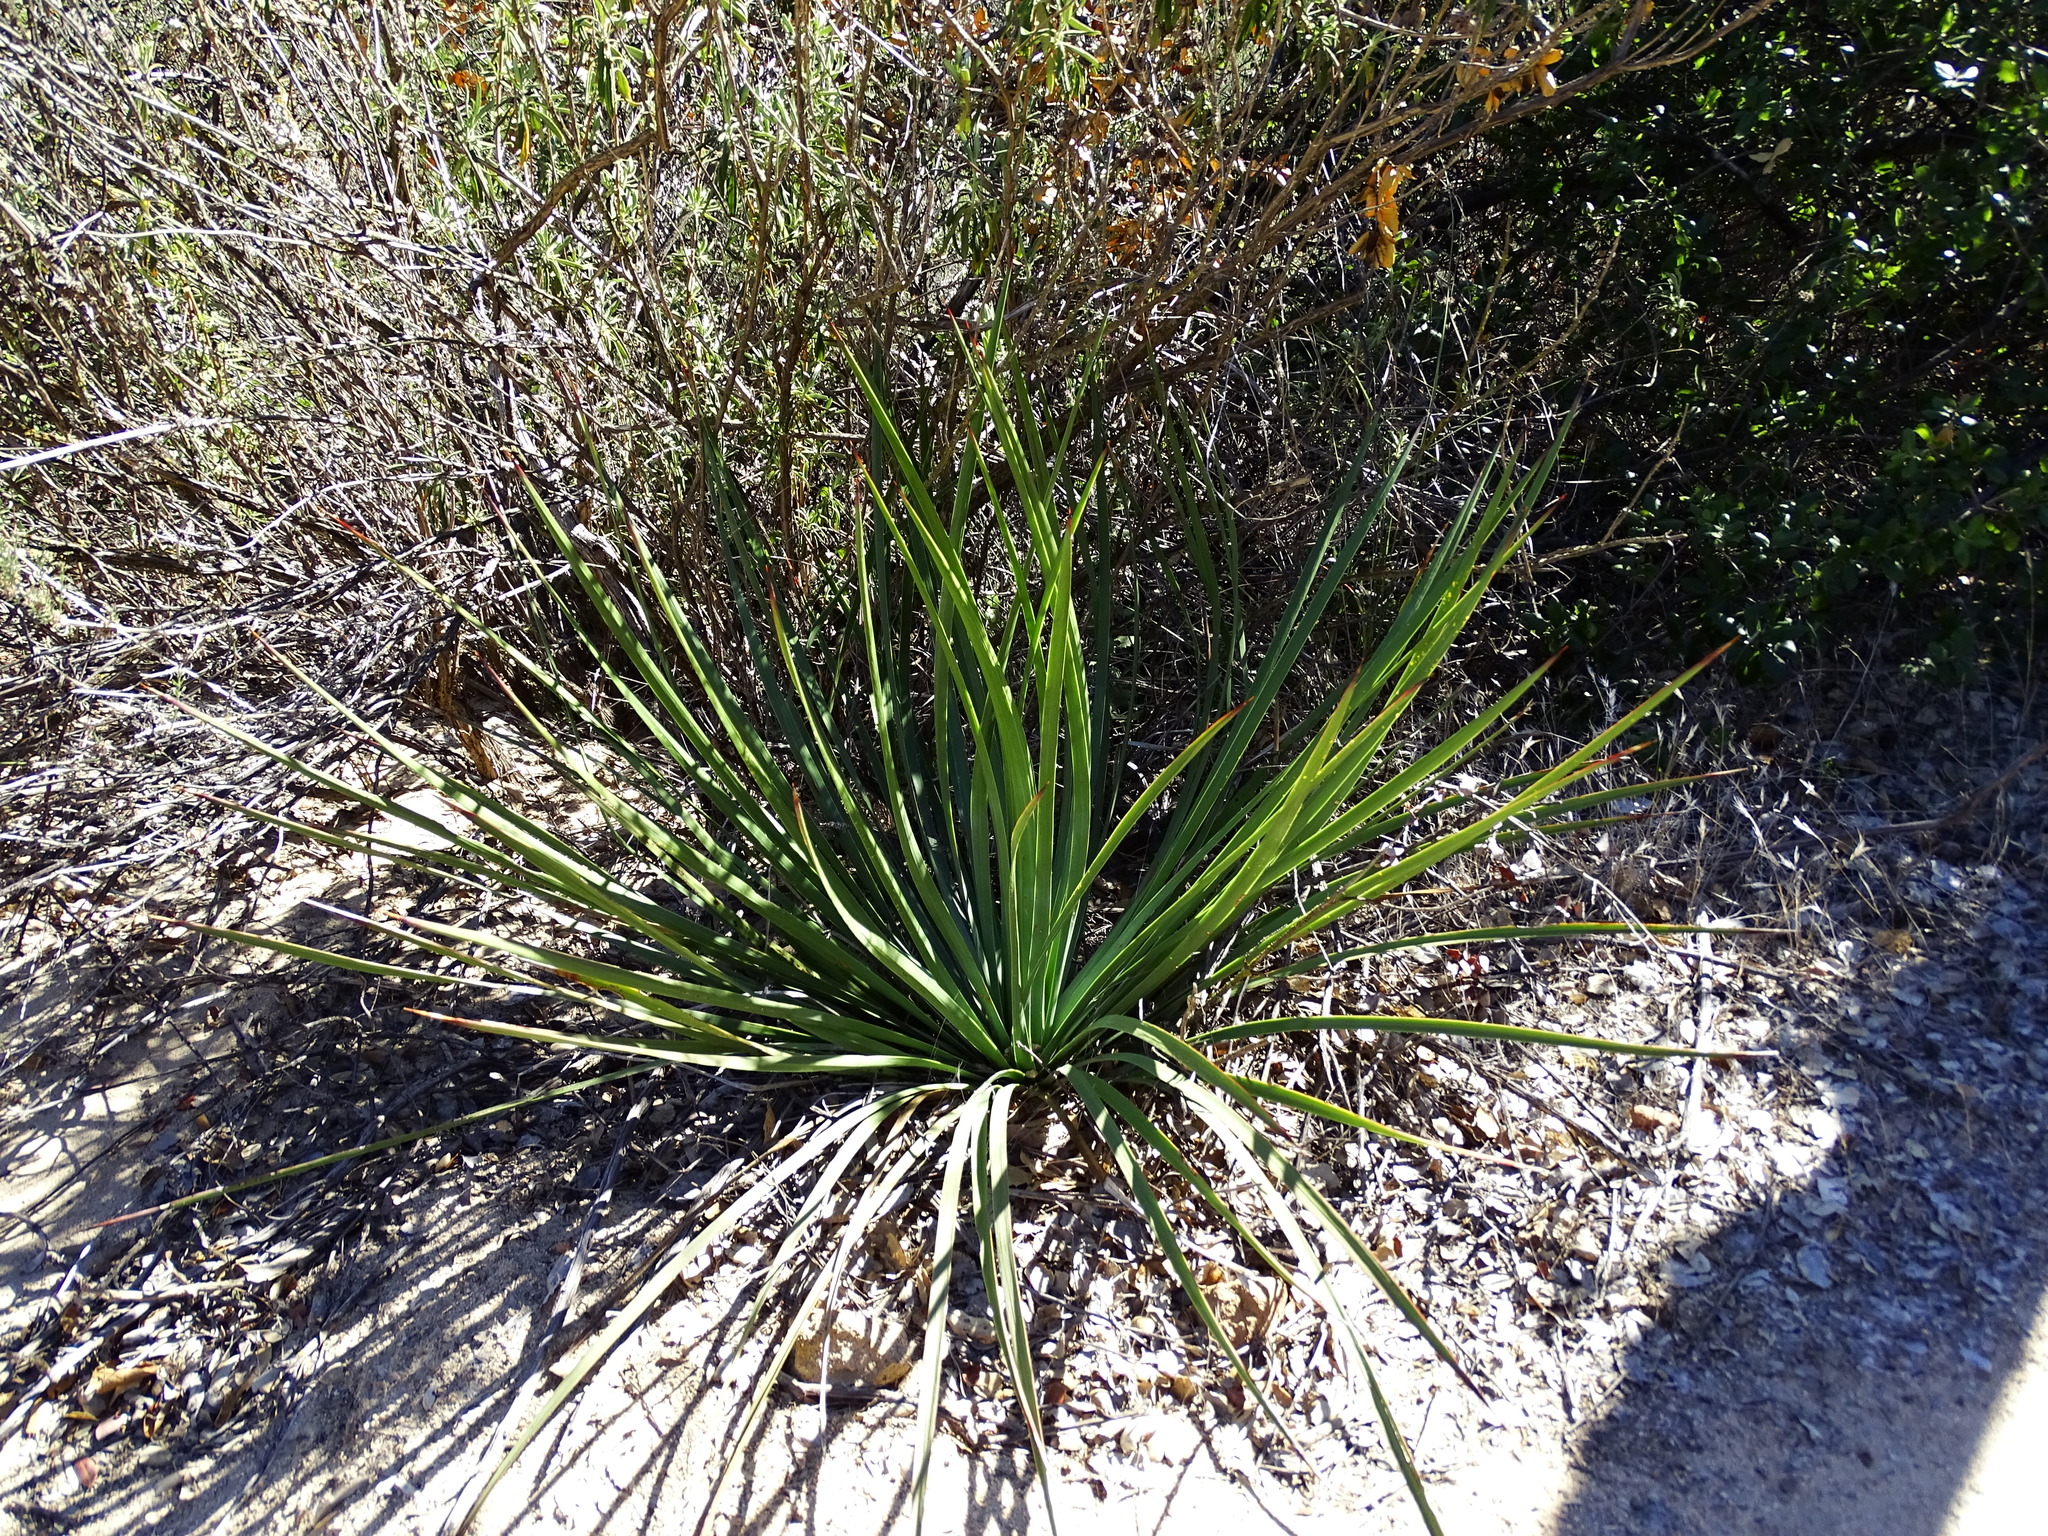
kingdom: Plantae
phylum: Tracheophyta
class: Liliopsida
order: Asparagales
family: Asparagaceae
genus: Hesperoyucca
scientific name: Hesperoyucca whipplei
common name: Our lord's-candle
